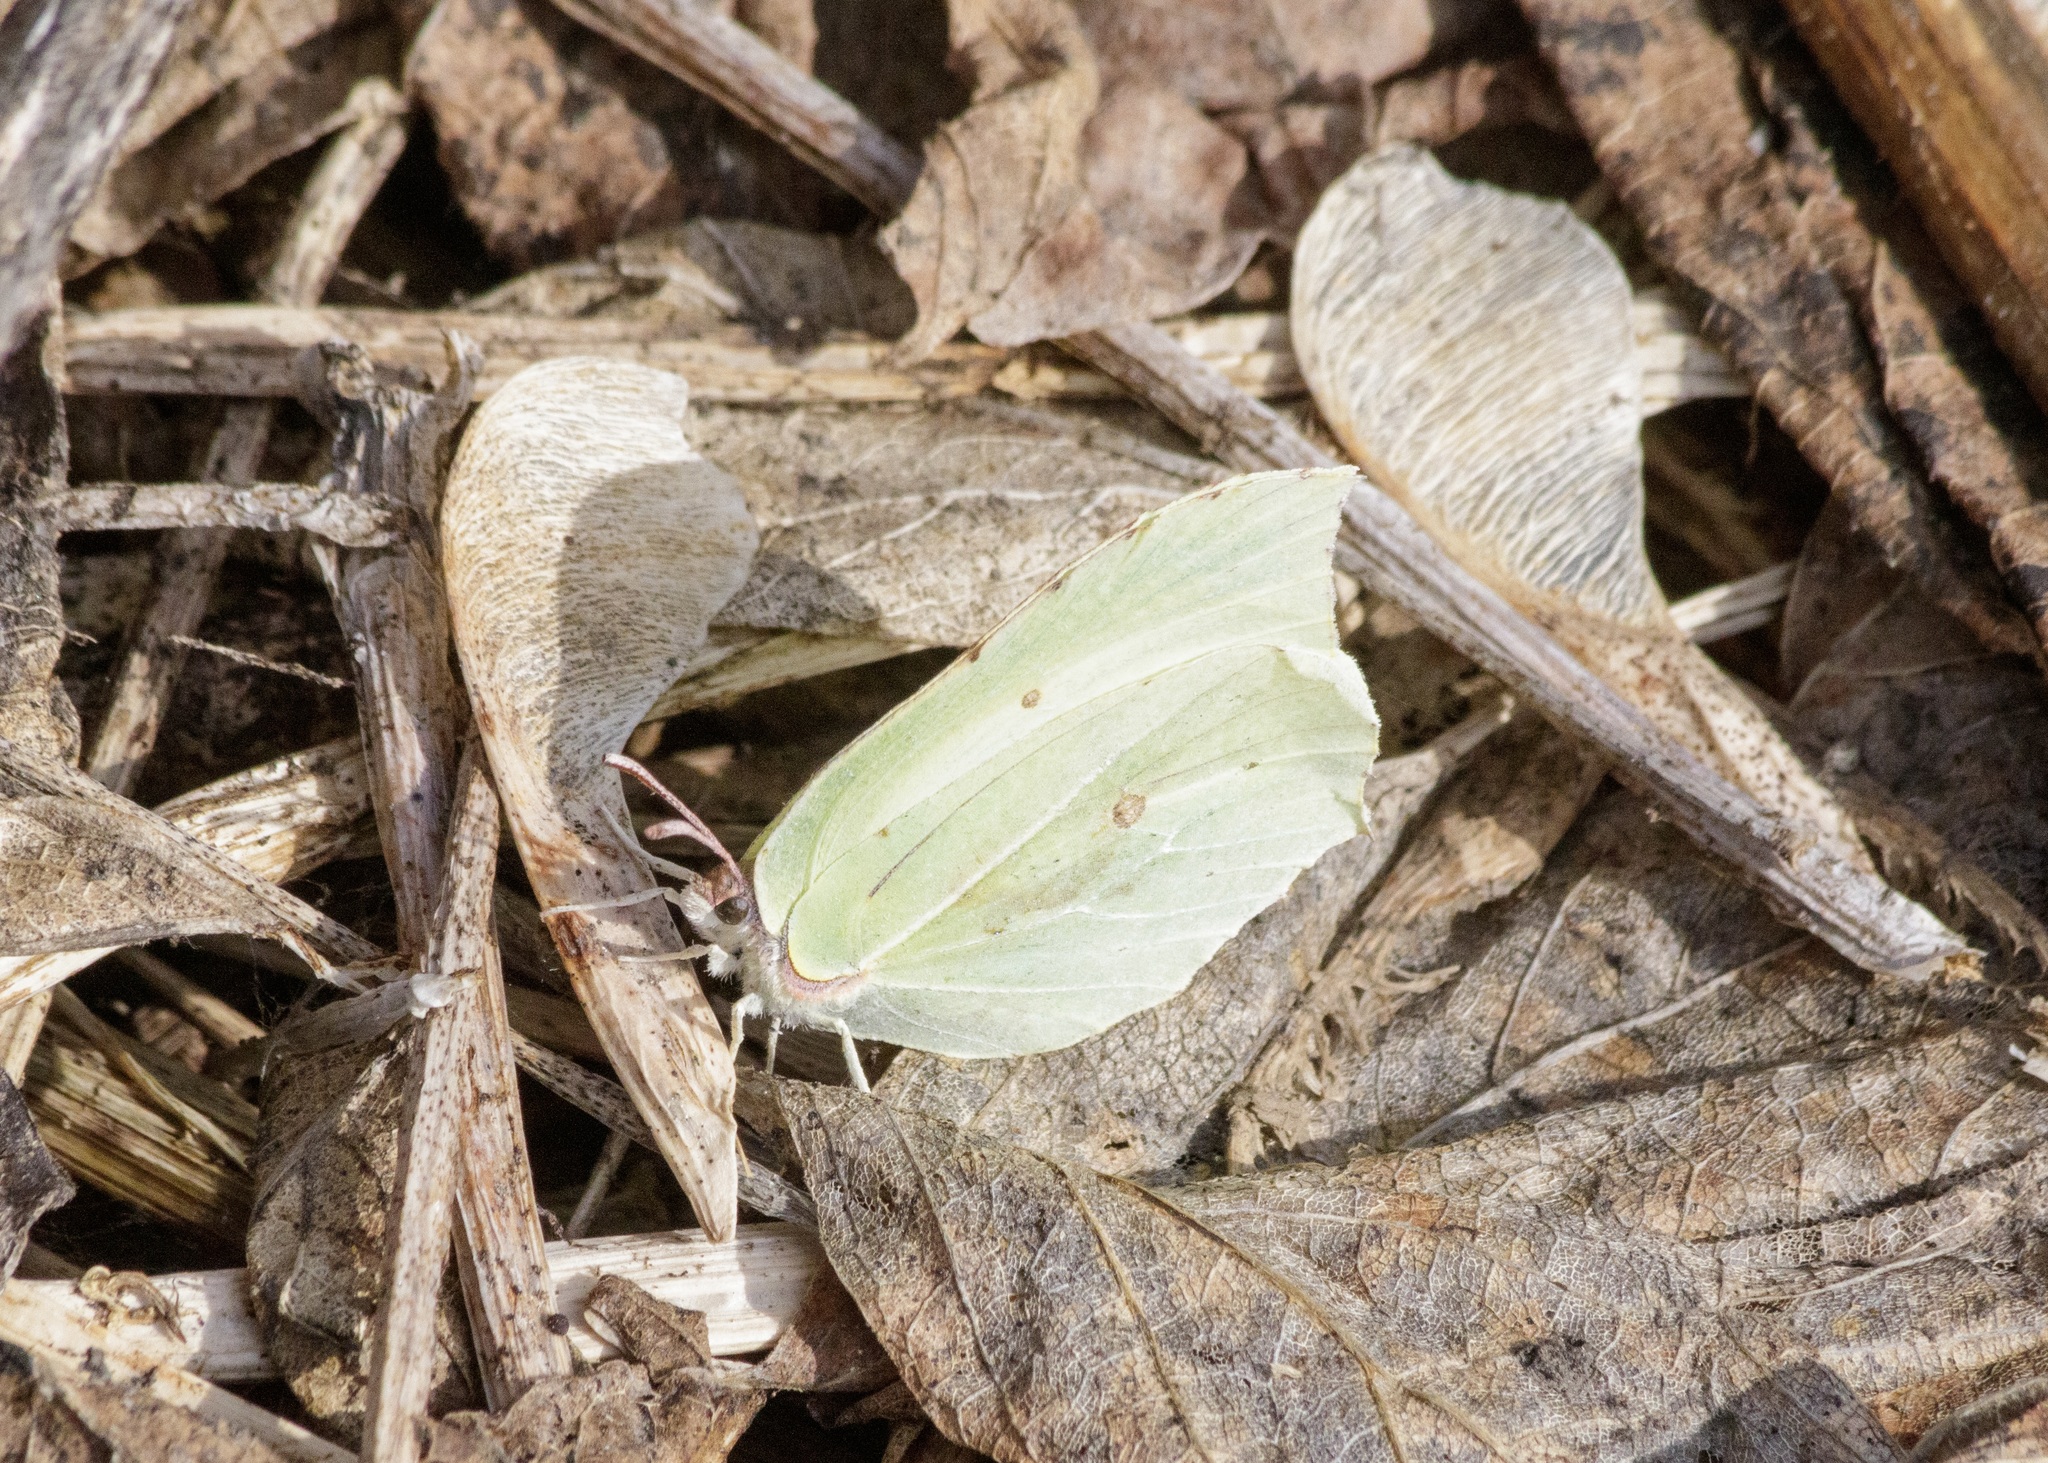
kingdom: Animalia
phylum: Arthropoda
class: Insecta
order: Lepidoptera
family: Pieridae
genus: Gonepteryx
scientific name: Gonepteryx rhamni
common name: Brimstone
